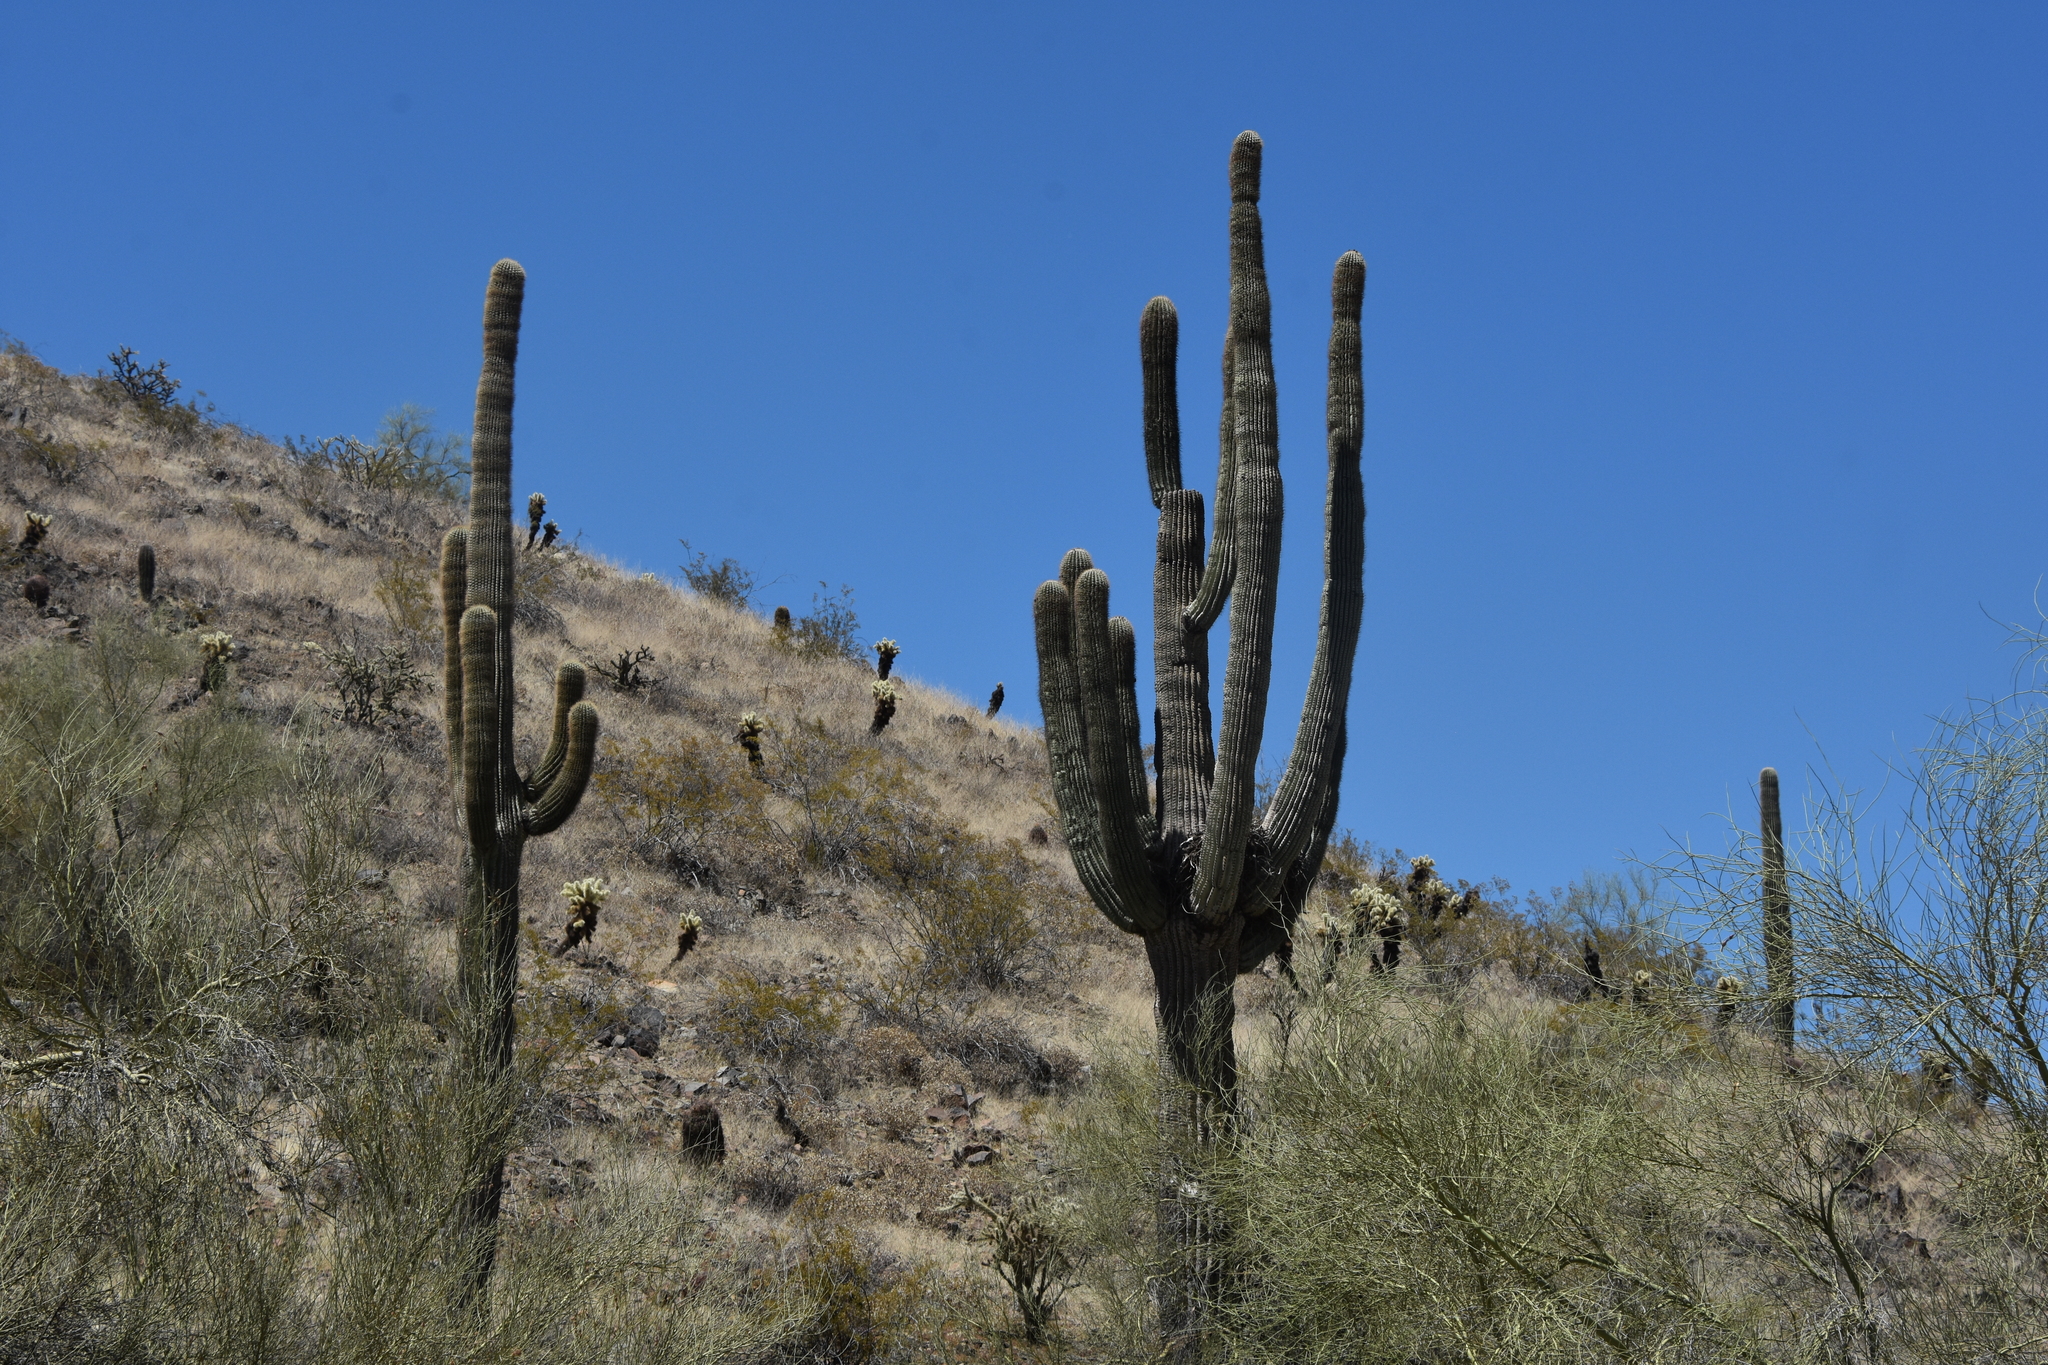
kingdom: Plantae
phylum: Tracheophyta
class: Magnoliopsida
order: Caryophyllales
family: Cactaceae
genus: Carnegiea
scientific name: Carnegiea gigantea
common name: Saguaro
